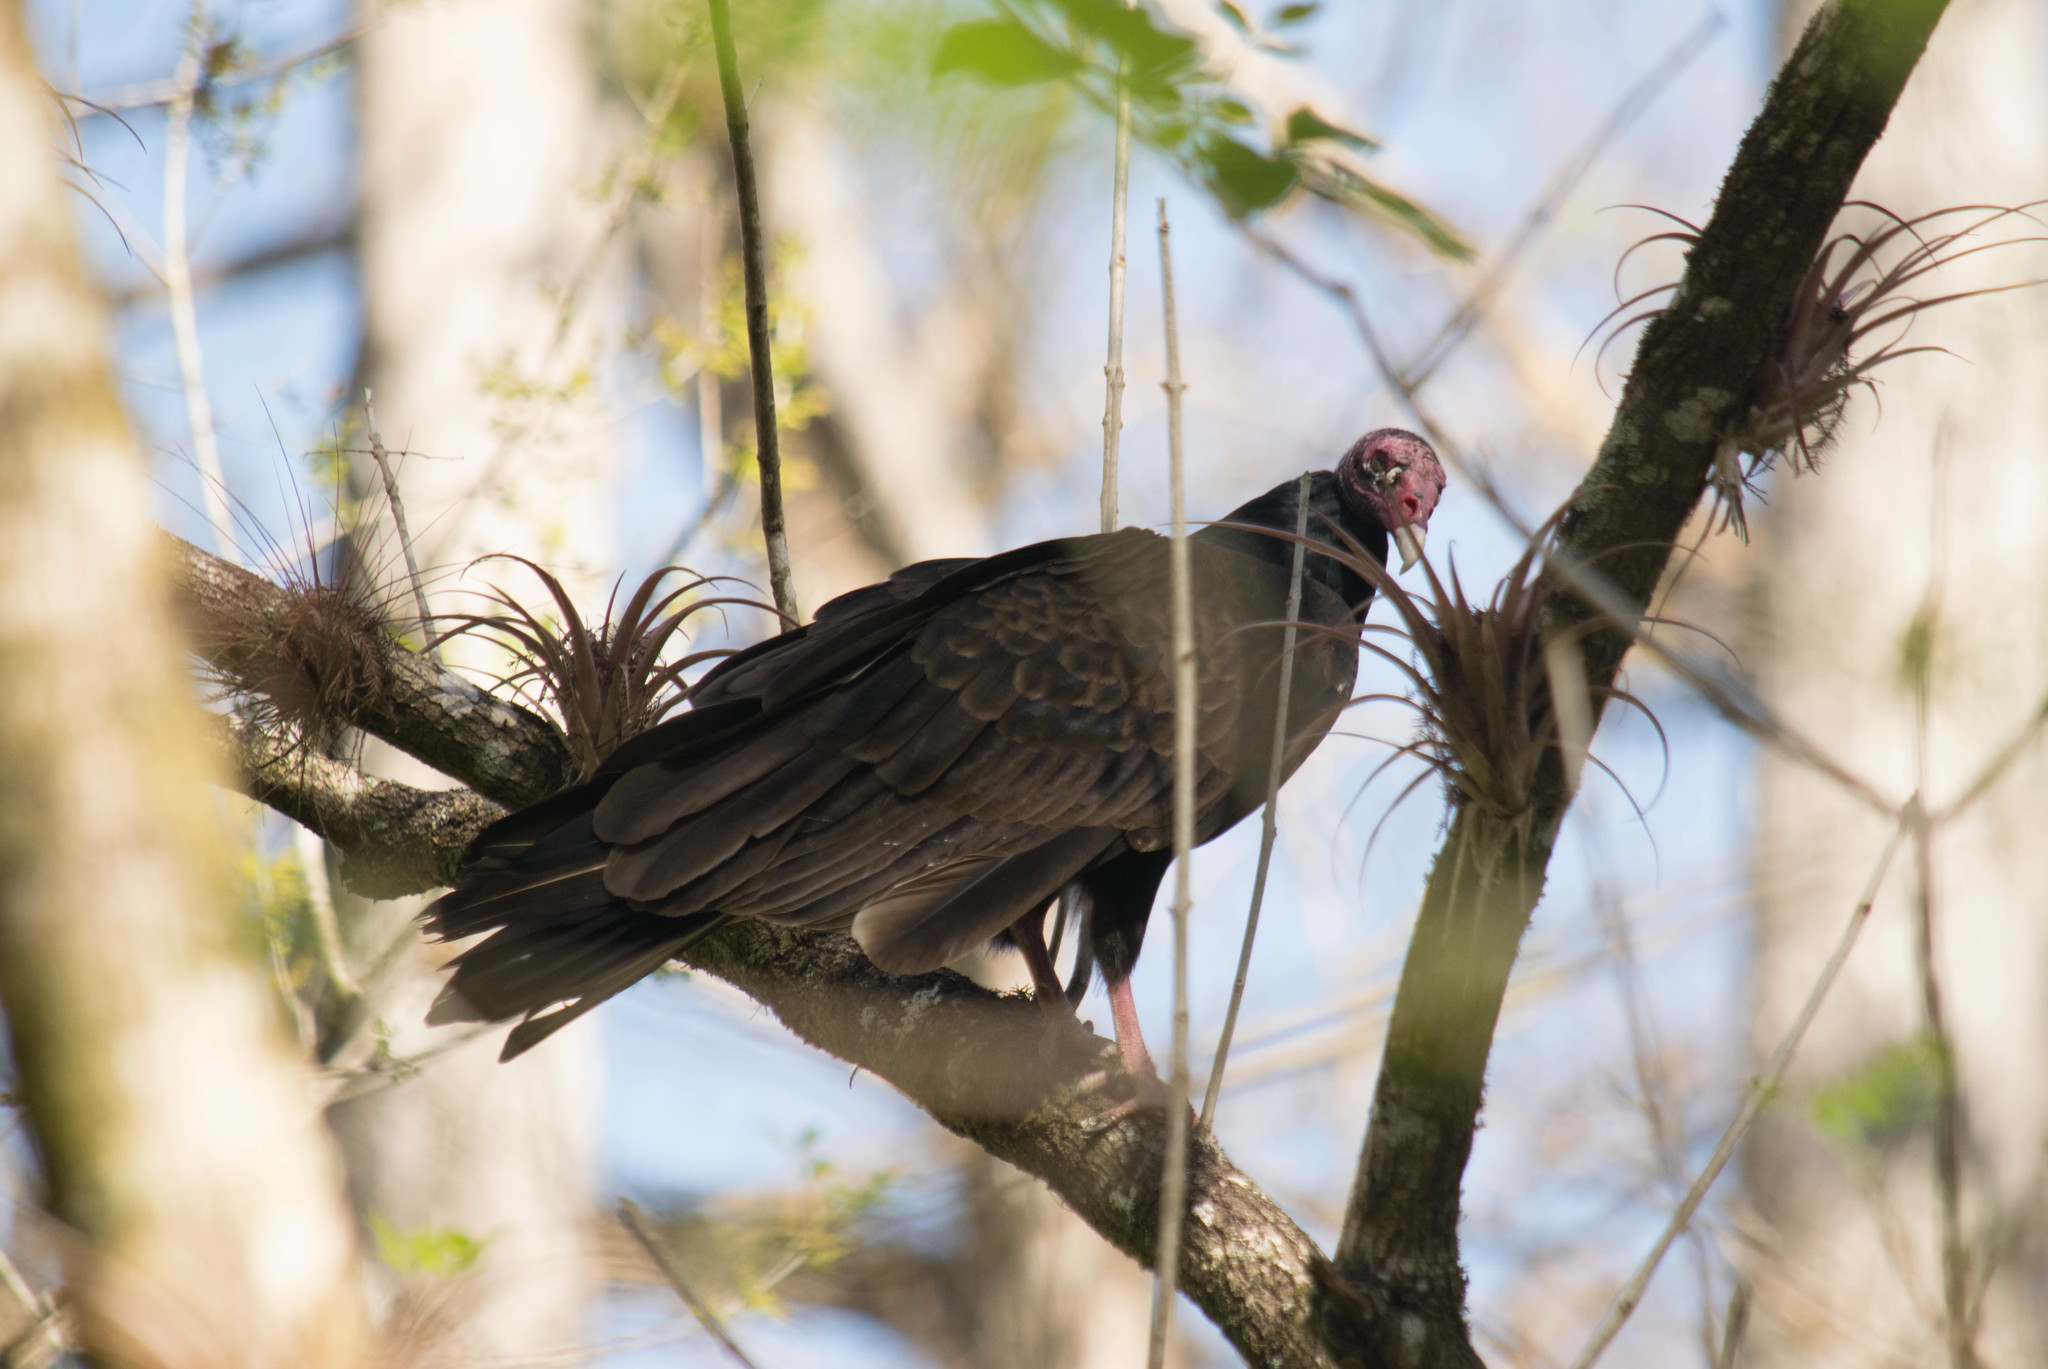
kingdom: Animalia
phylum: Chordata
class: Aves
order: Accipitriformes
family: Cathartidae
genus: Cathartes
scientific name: Cathartes aura
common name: Turkey vulture
